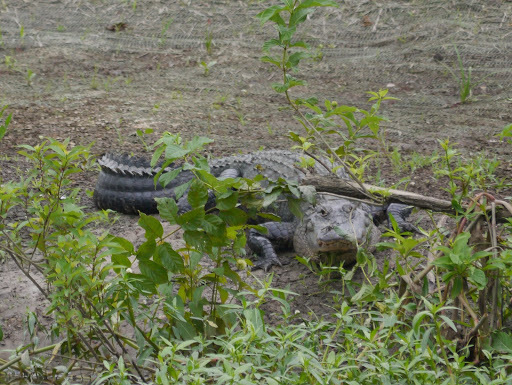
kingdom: Animalia
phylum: Chordata
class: Crocodylia
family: Alligatoridae
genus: Alligator
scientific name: Alligator mississippiensis
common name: American alligator
